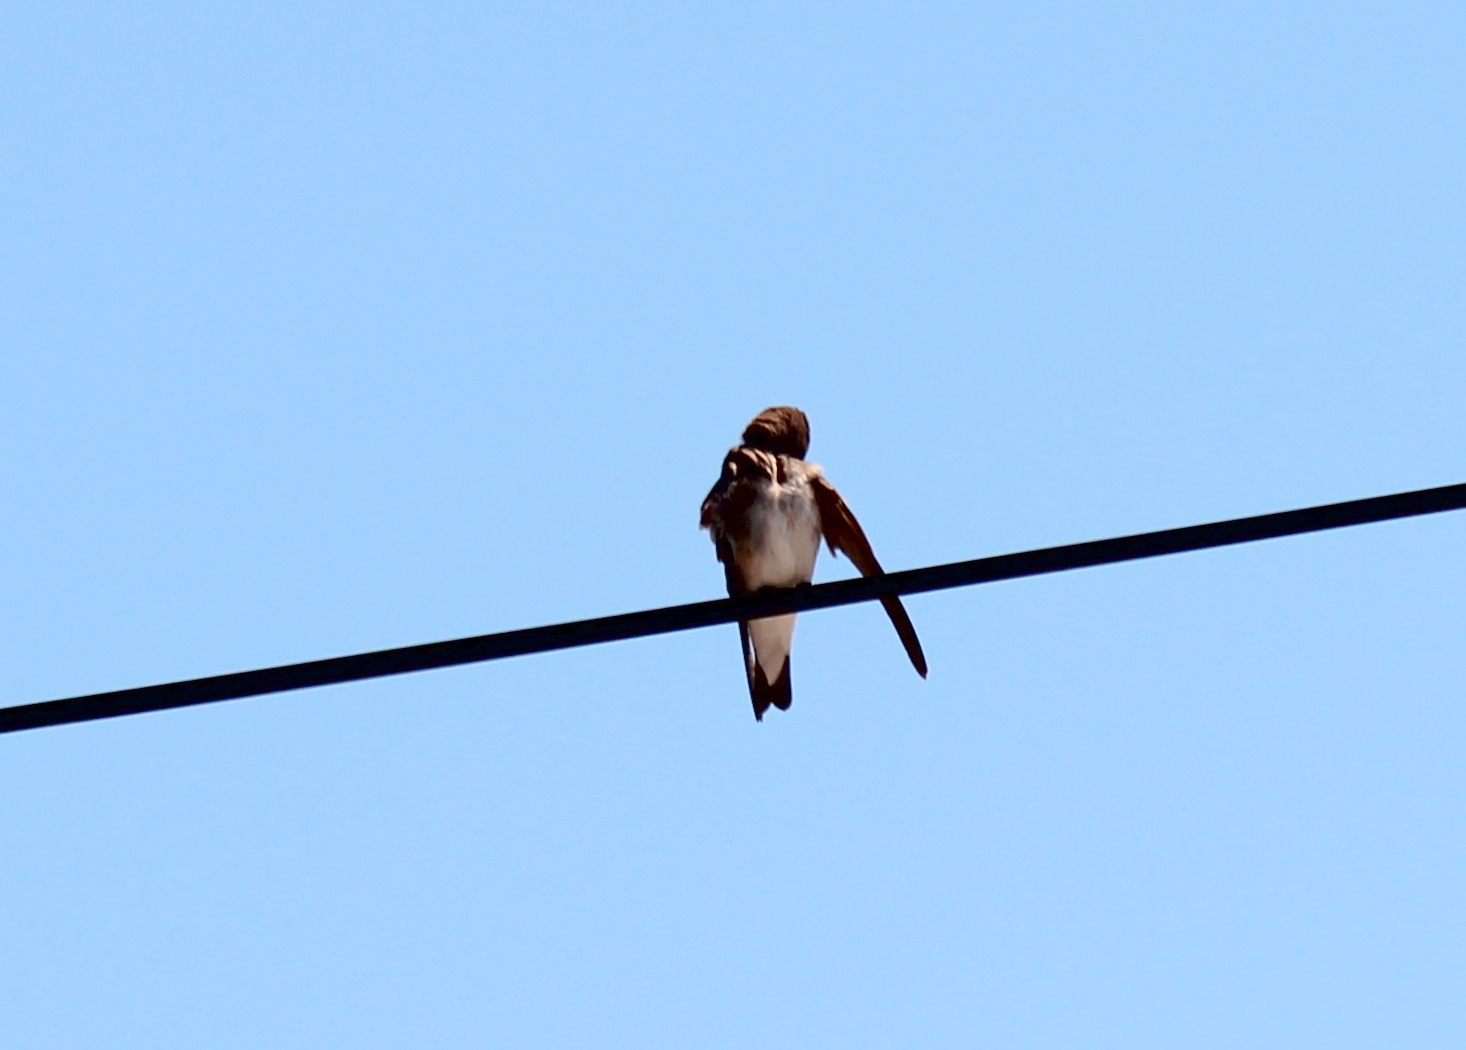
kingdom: Animalia
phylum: Chordata
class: Aves
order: Passeriformes
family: Hirundinidae
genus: Stelgidopteryx
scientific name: Stelgidopteryx serripennis
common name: Northern rough-winged swallow
